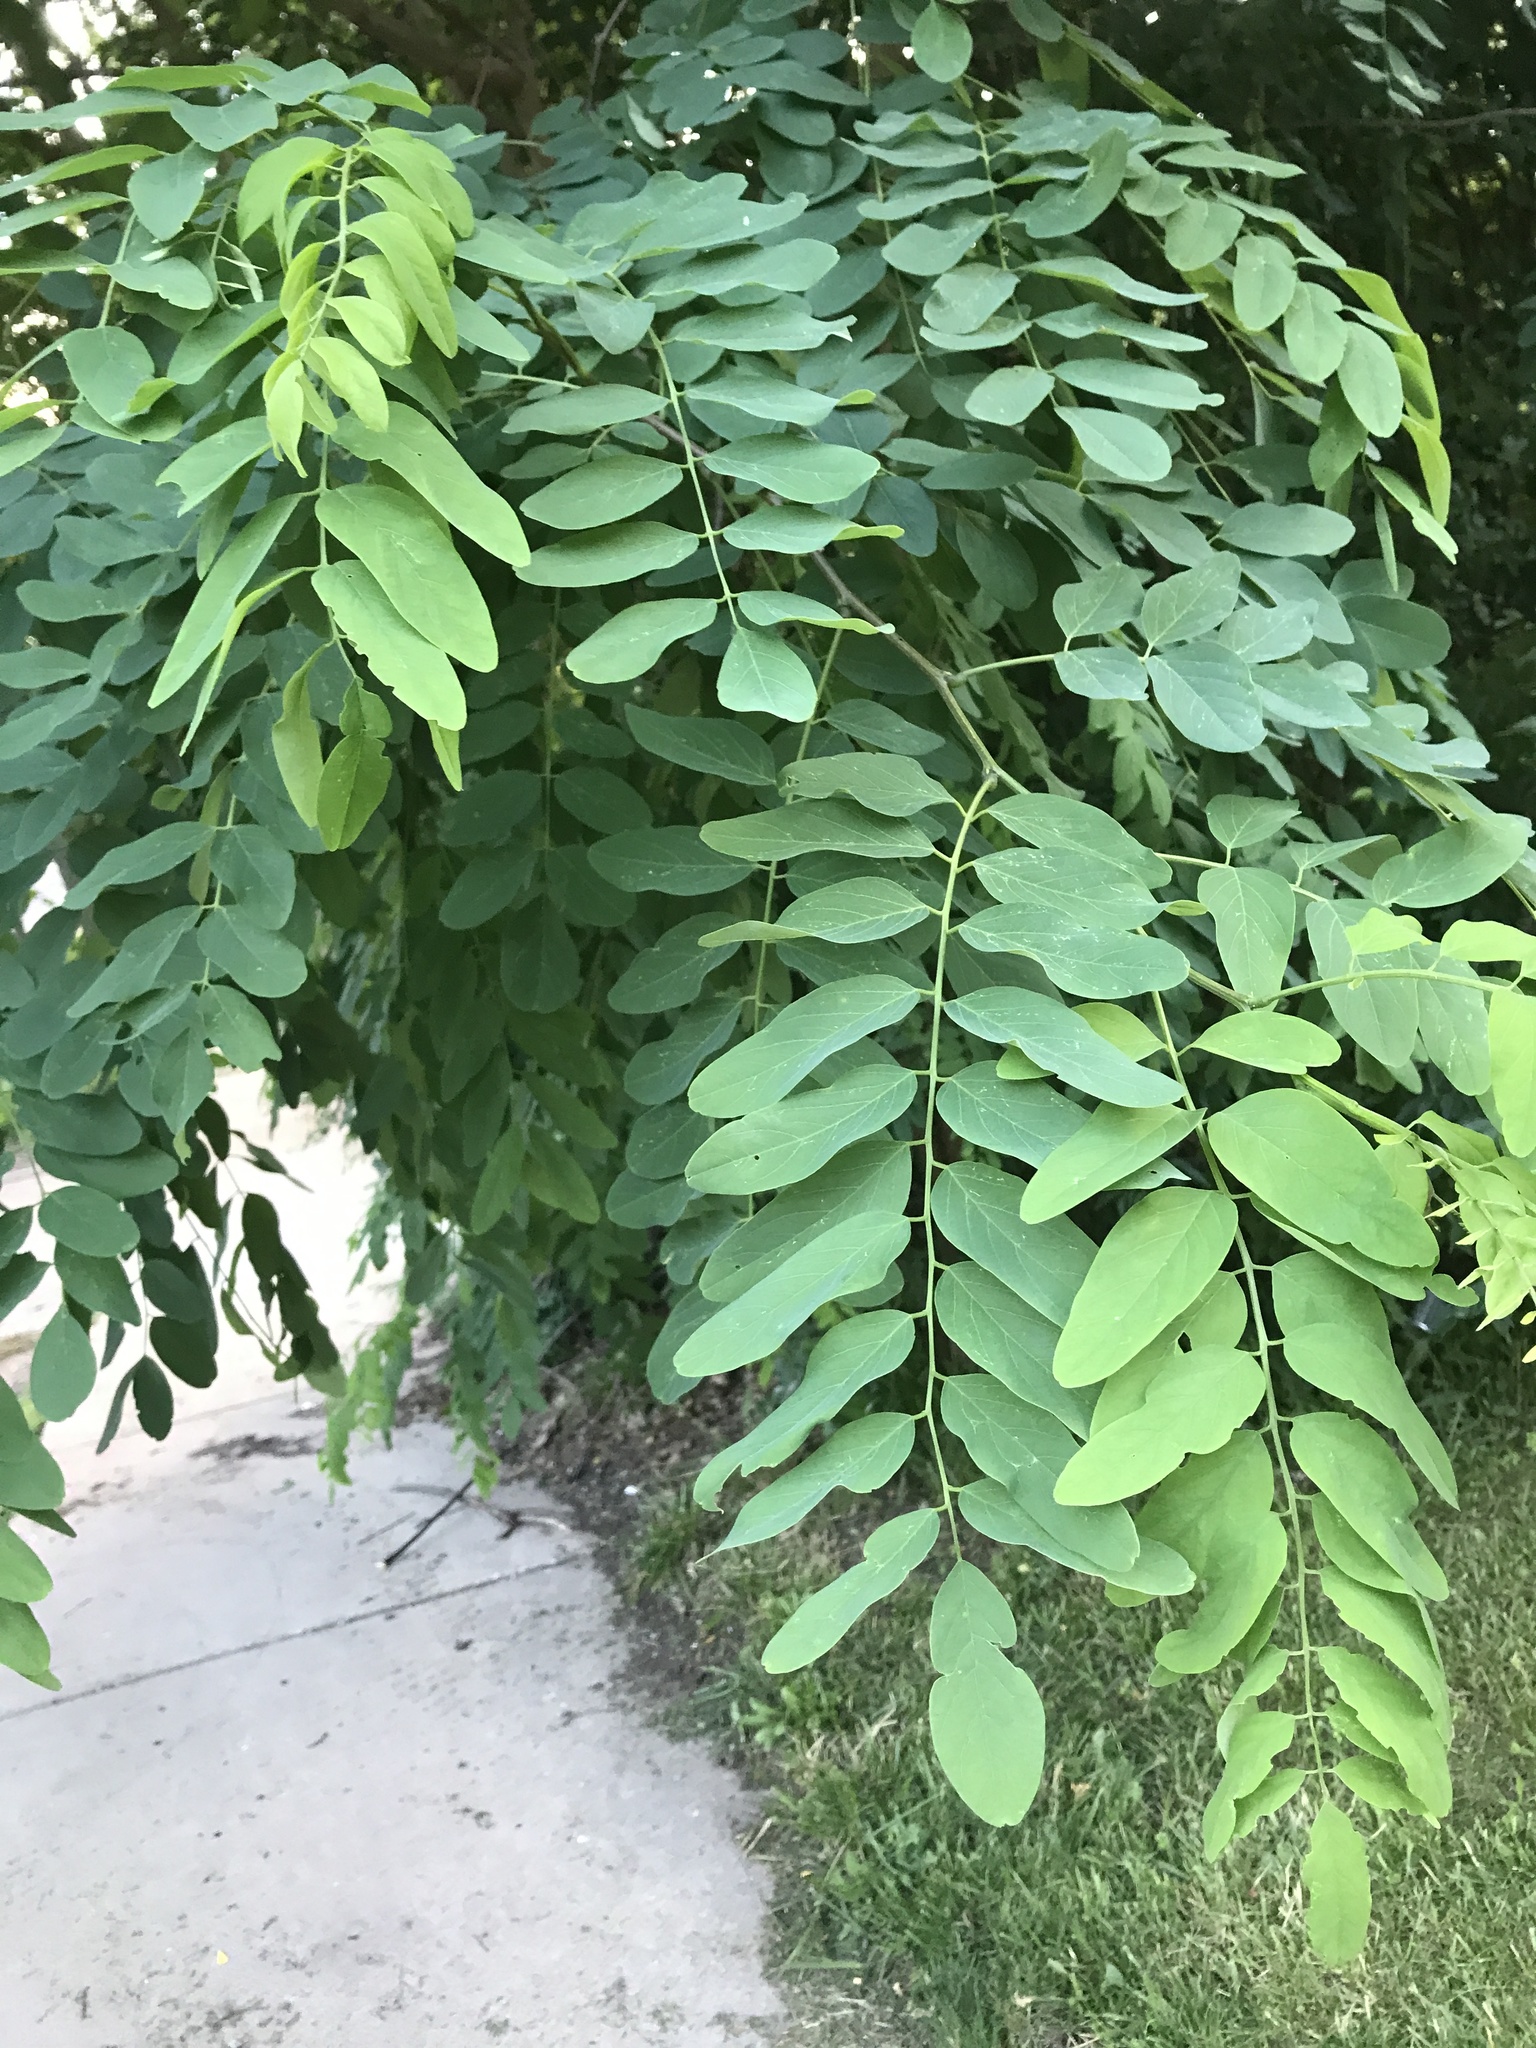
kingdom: Plantae
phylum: Tracheophyta
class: Magnoliopsida
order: Fabales
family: Fabaceae
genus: Robinia
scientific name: Robinia pseudoacacia
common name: Black locust
